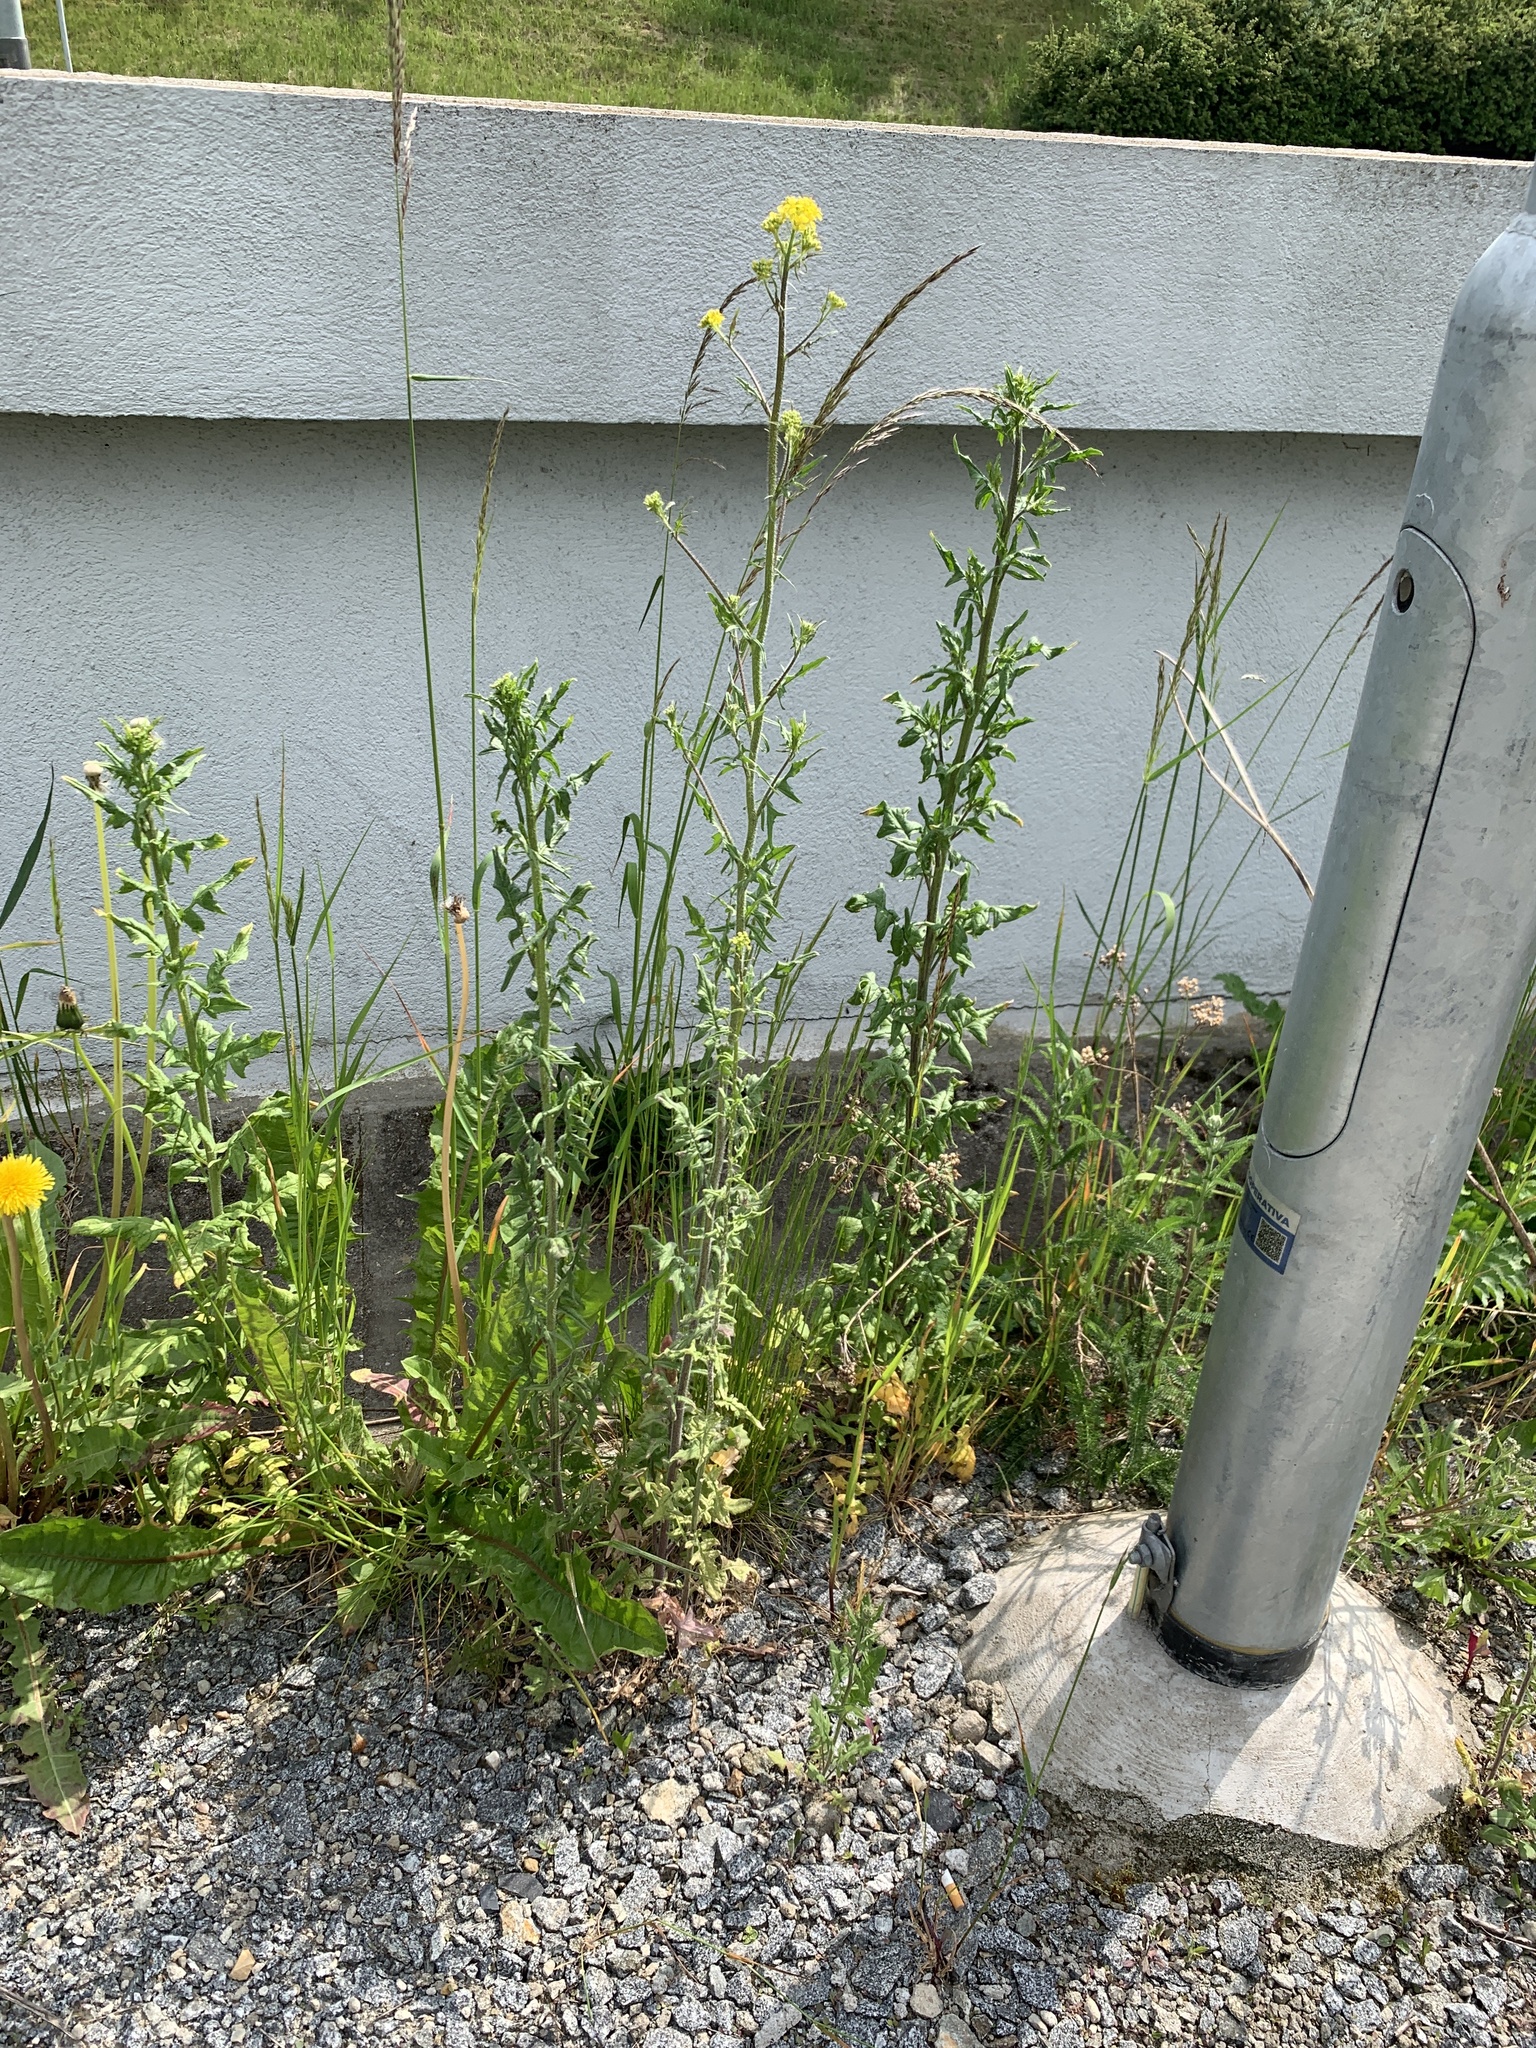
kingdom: Plantae
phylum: Tracheophyta
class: Magnoliopsida
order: Brassicales
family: Brassicaceae
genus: Sisymbrium
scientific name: Sisymbrium loeselii
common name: False london-rocket
